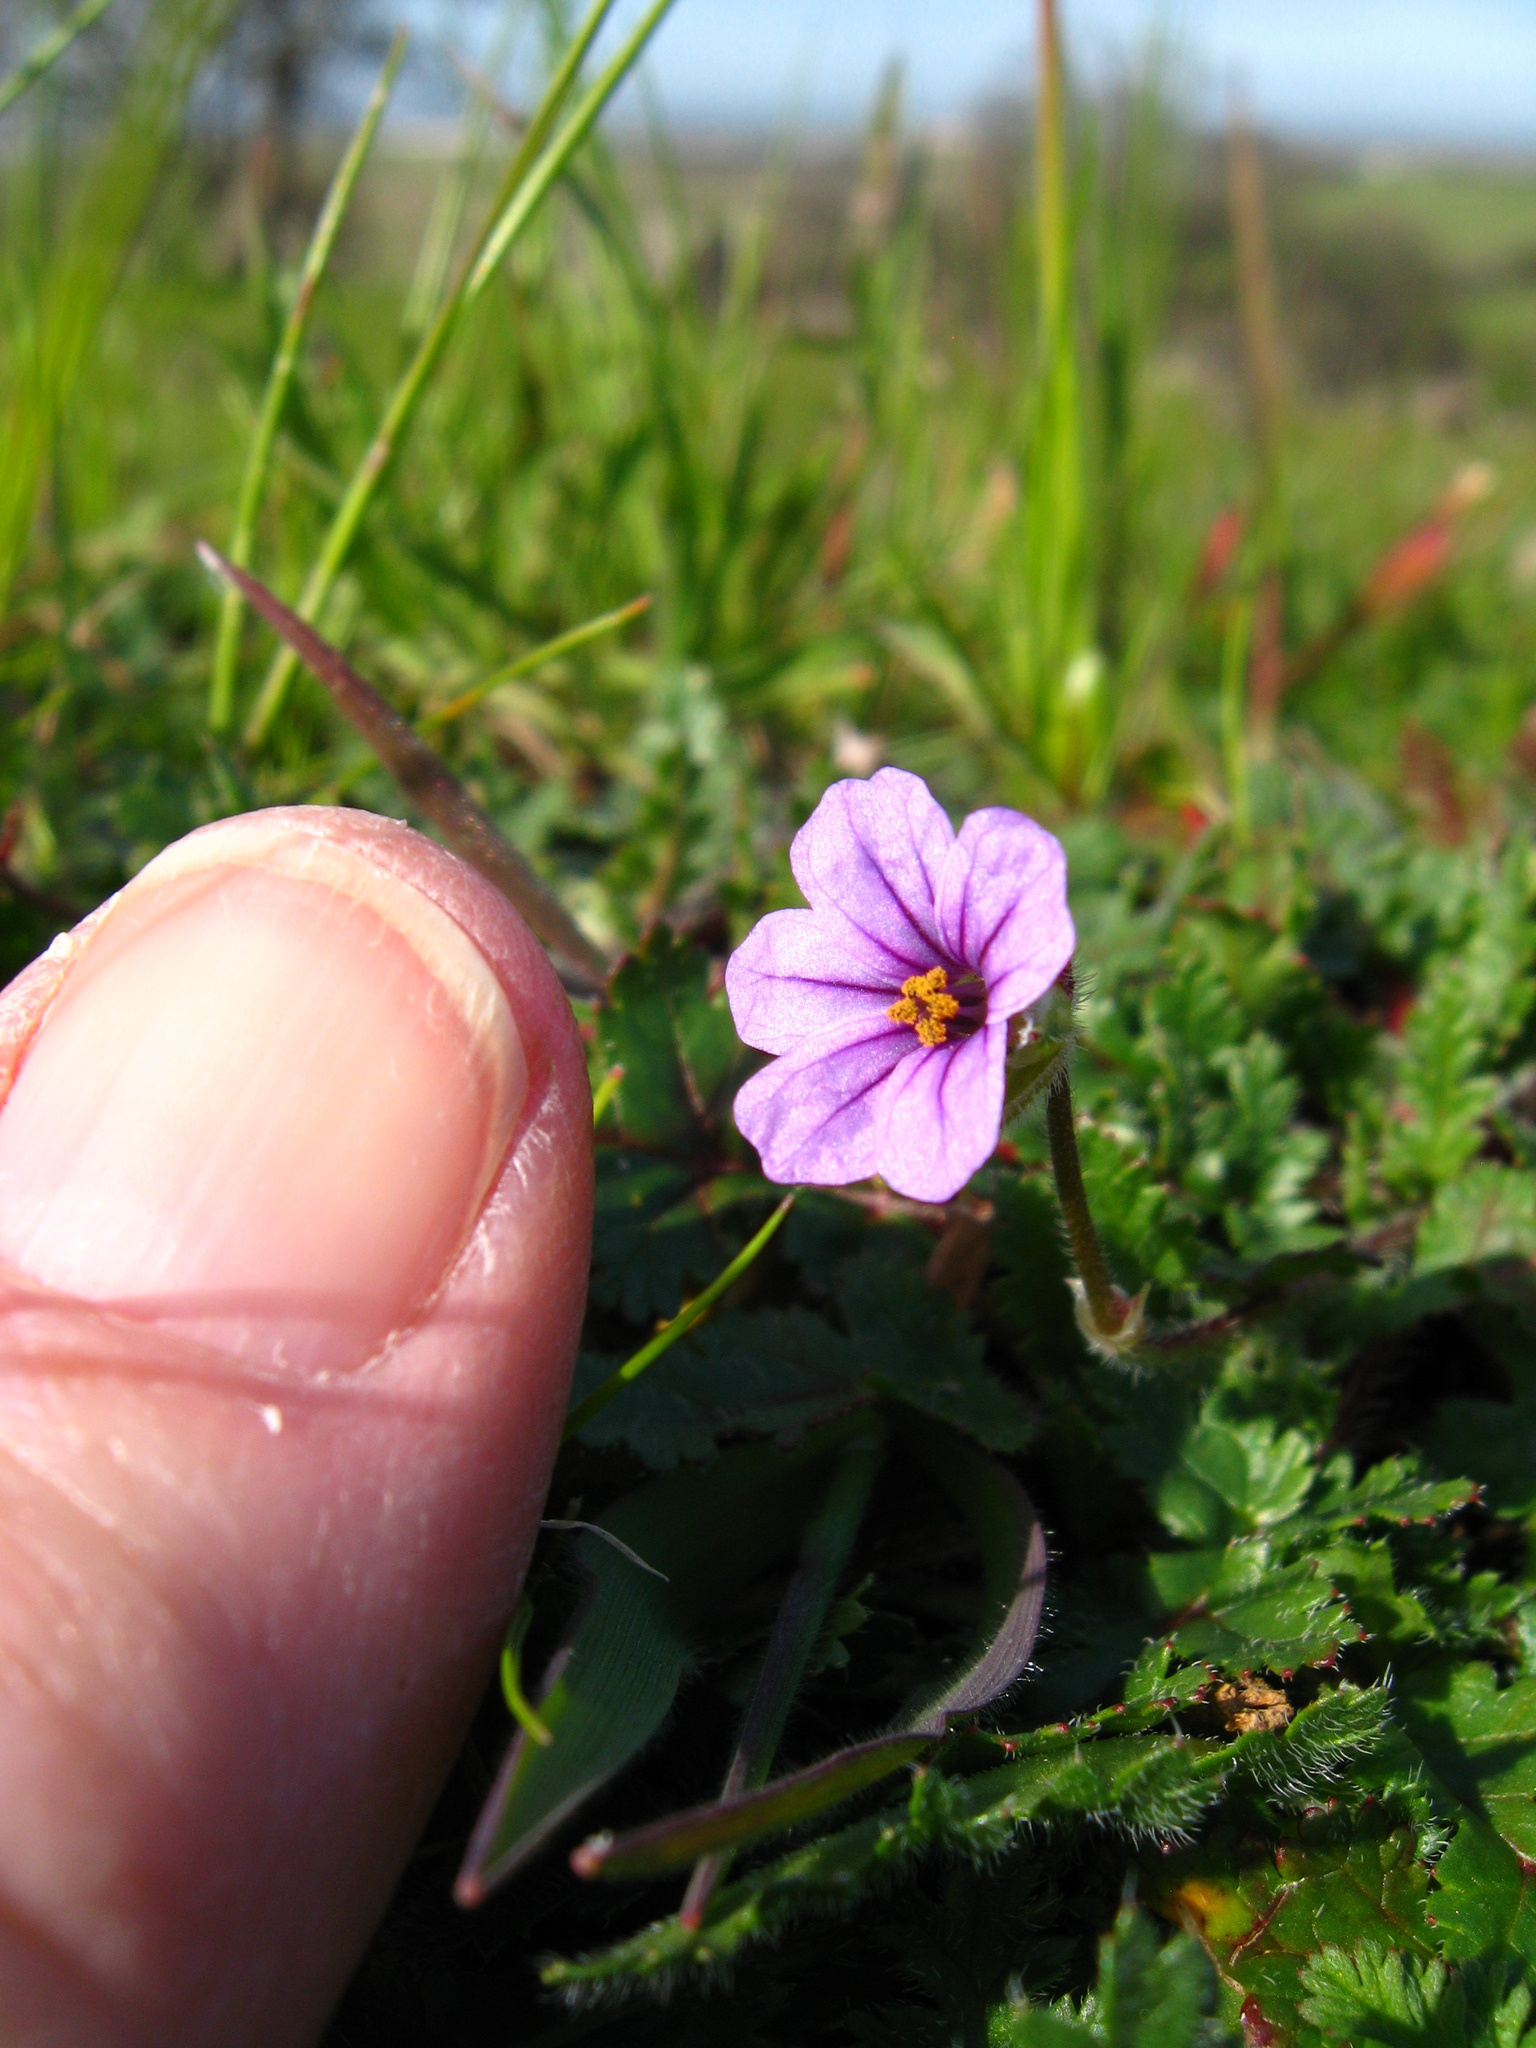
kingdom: Plantae
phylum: Tracheophyta
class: Magnoliopsida
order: Geraniales
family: Geraniaceae
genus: Erodium
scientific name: Erodium botrys
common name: Mediterranean stork's-bill
